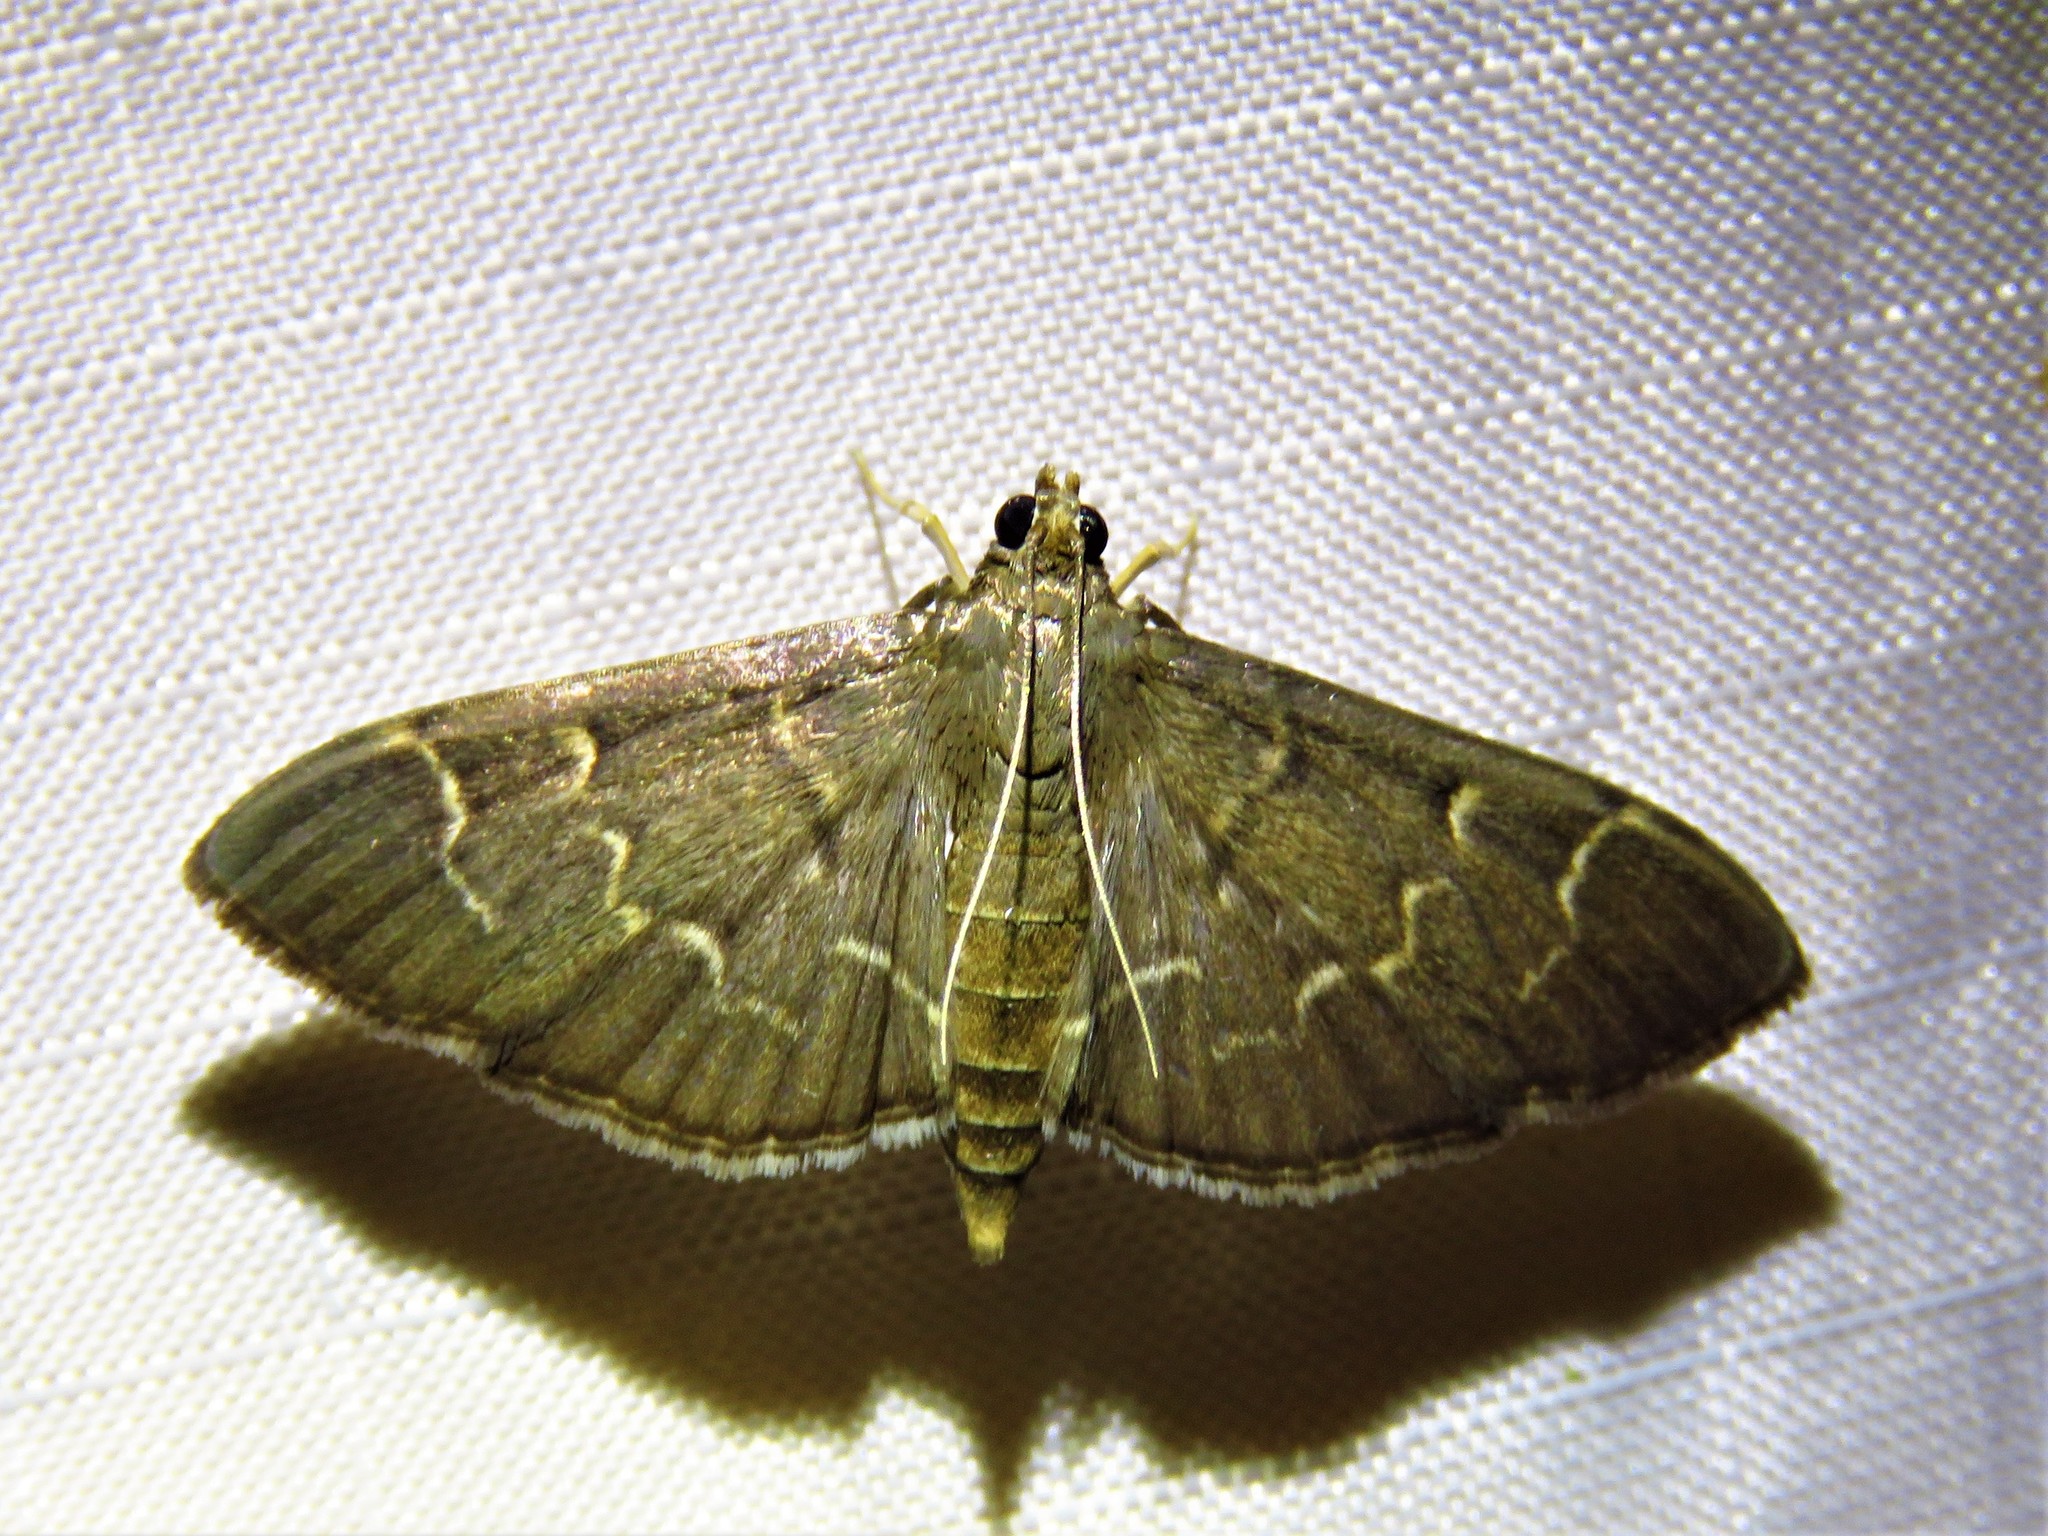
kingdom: Animalia
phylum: Arthropoda
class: Insecta
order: Lepidoptera
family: Crambidae
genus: Pilocrocis
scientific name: Pilocrocis ramentalis
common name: Scraped pilocrocis
